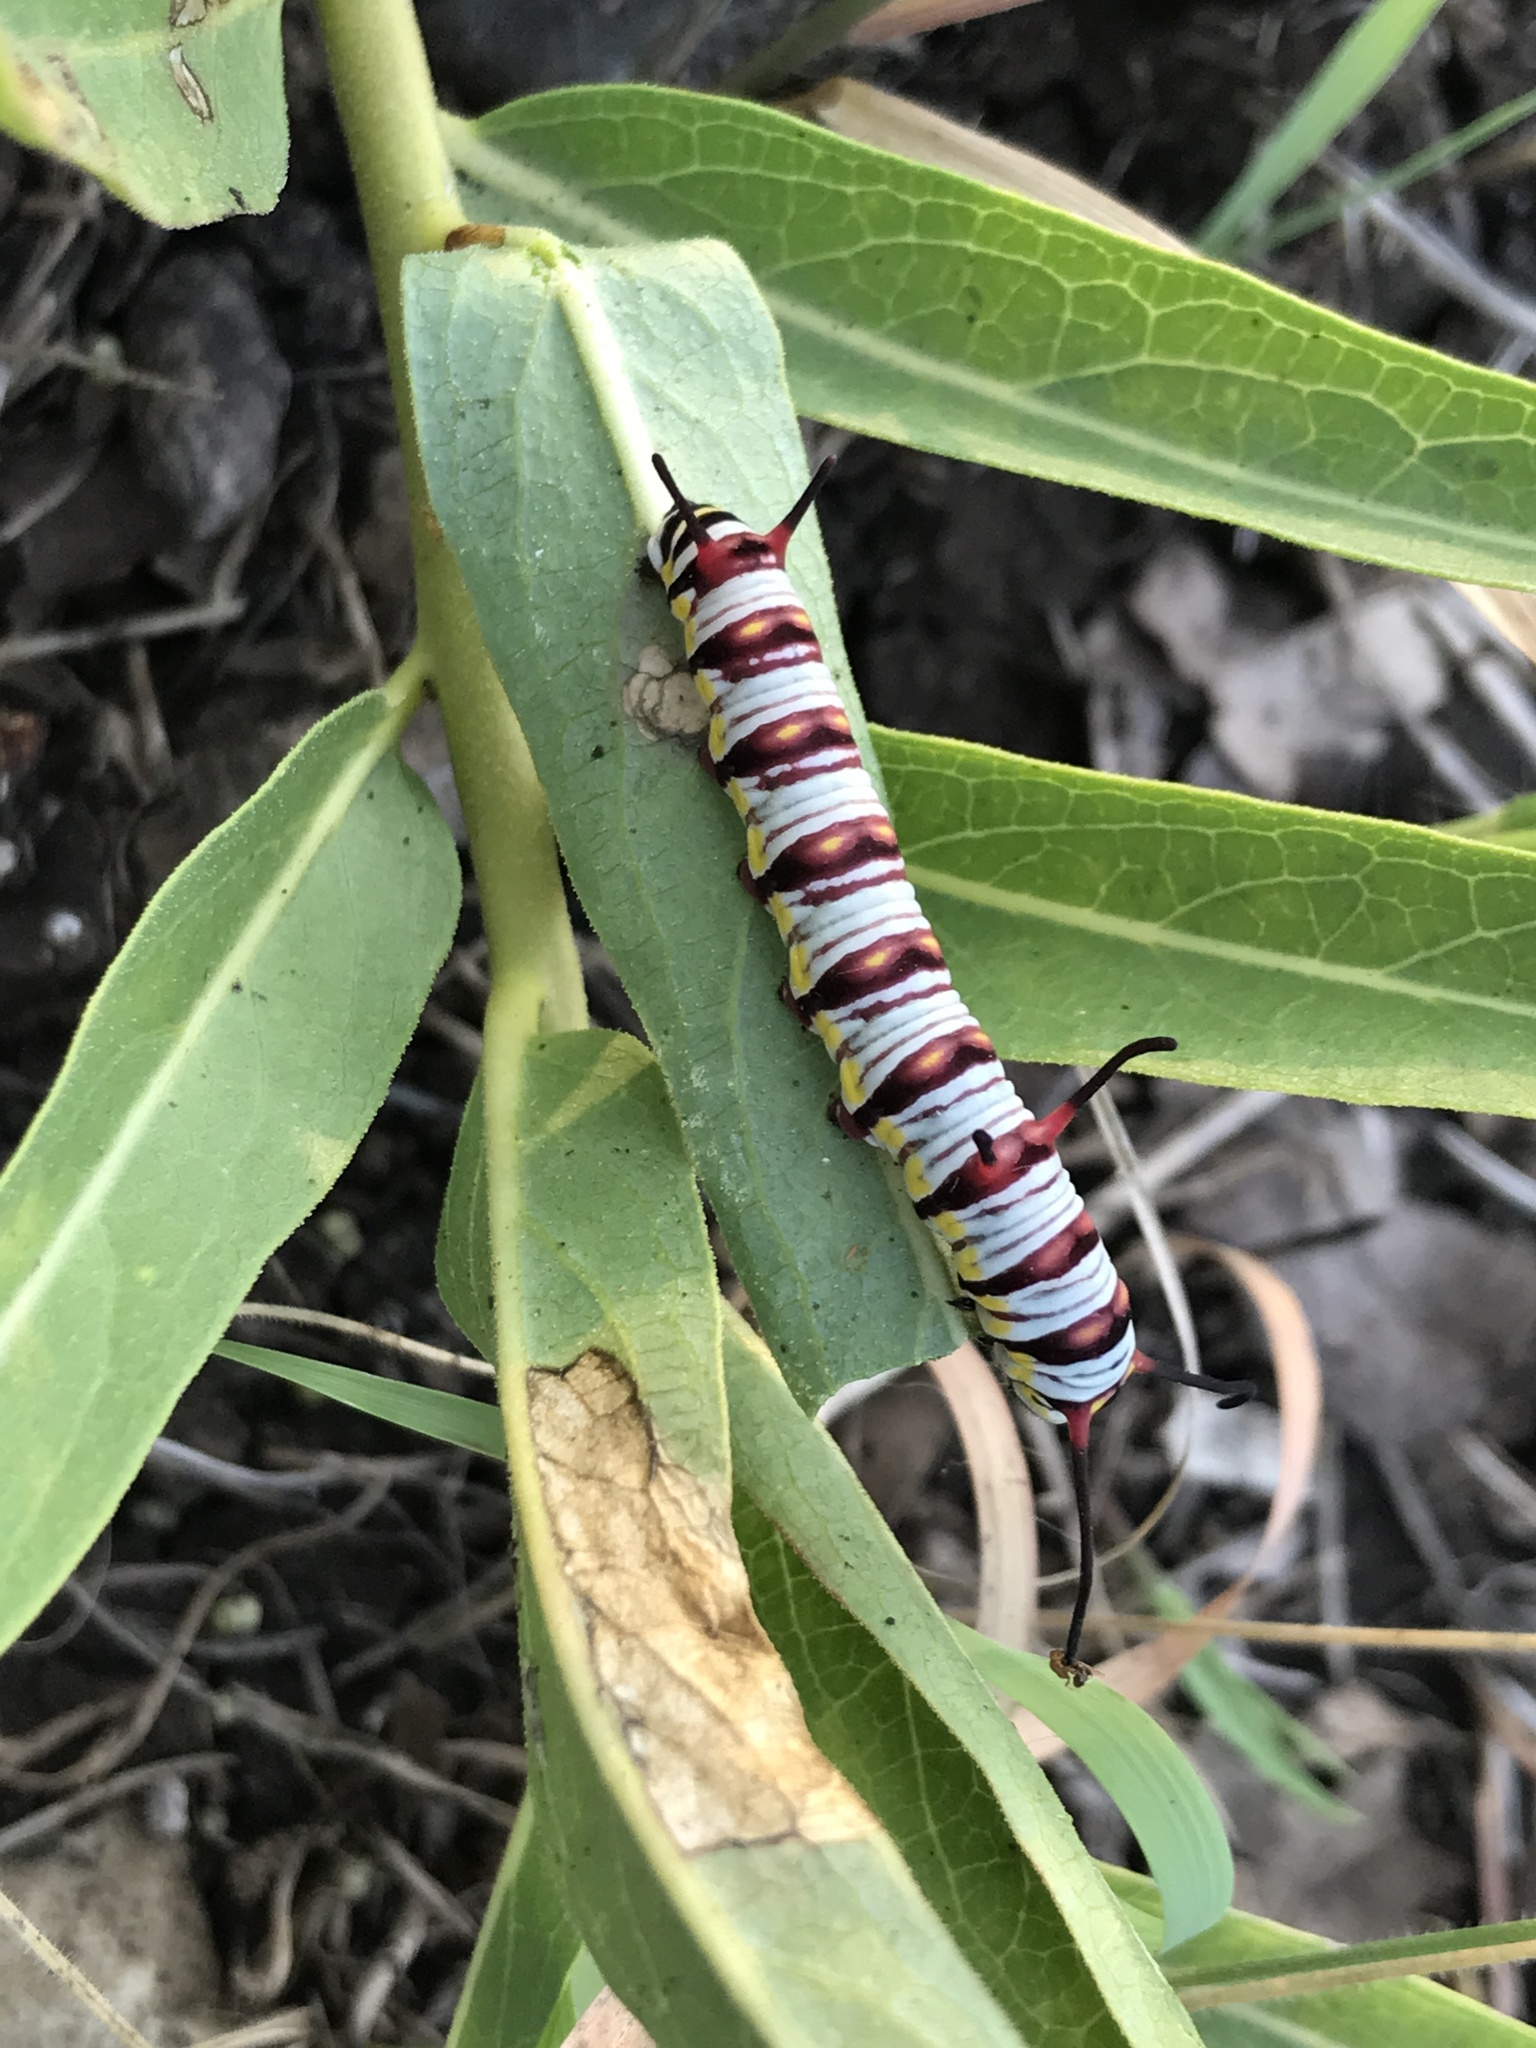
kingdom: Animalia
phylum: Arthropoda
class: Insecta
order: Lepidoptera
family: Nymphalidae
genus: Danaus
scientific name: Danaus gilippus
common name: Queen
